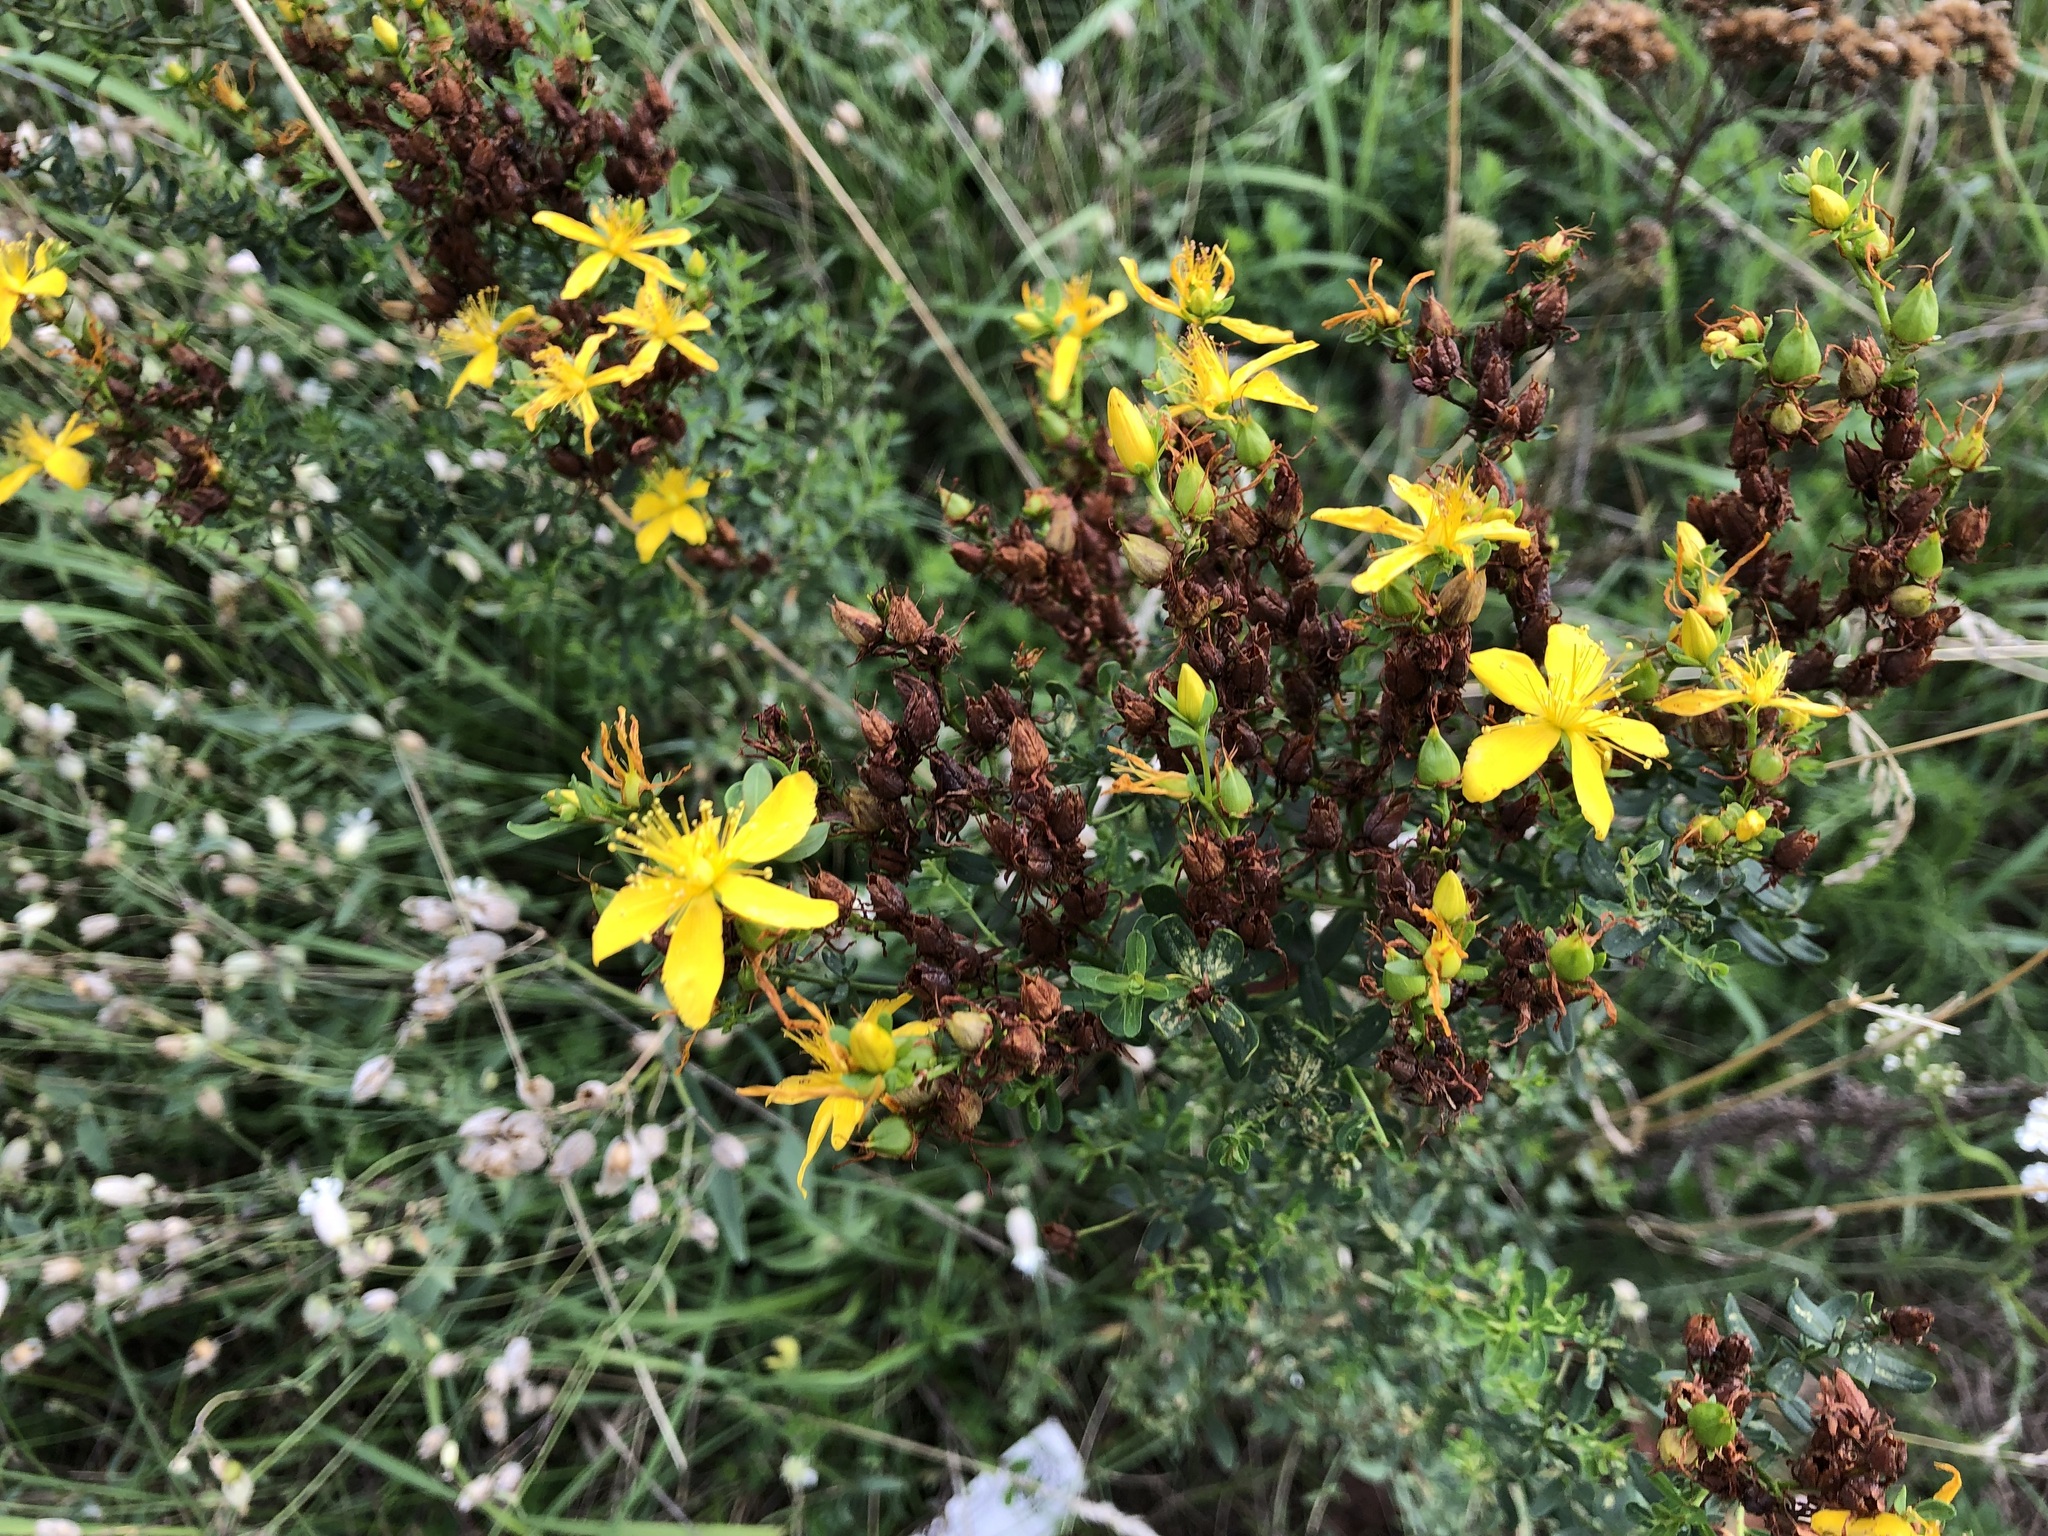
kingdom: Plantae
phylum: Tracheophyta
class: Magnoliopsida
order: Malpighiales
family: Hypericaceae
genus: Hypericum
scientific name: Hypericum perforatum
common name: Common st. johnswort
